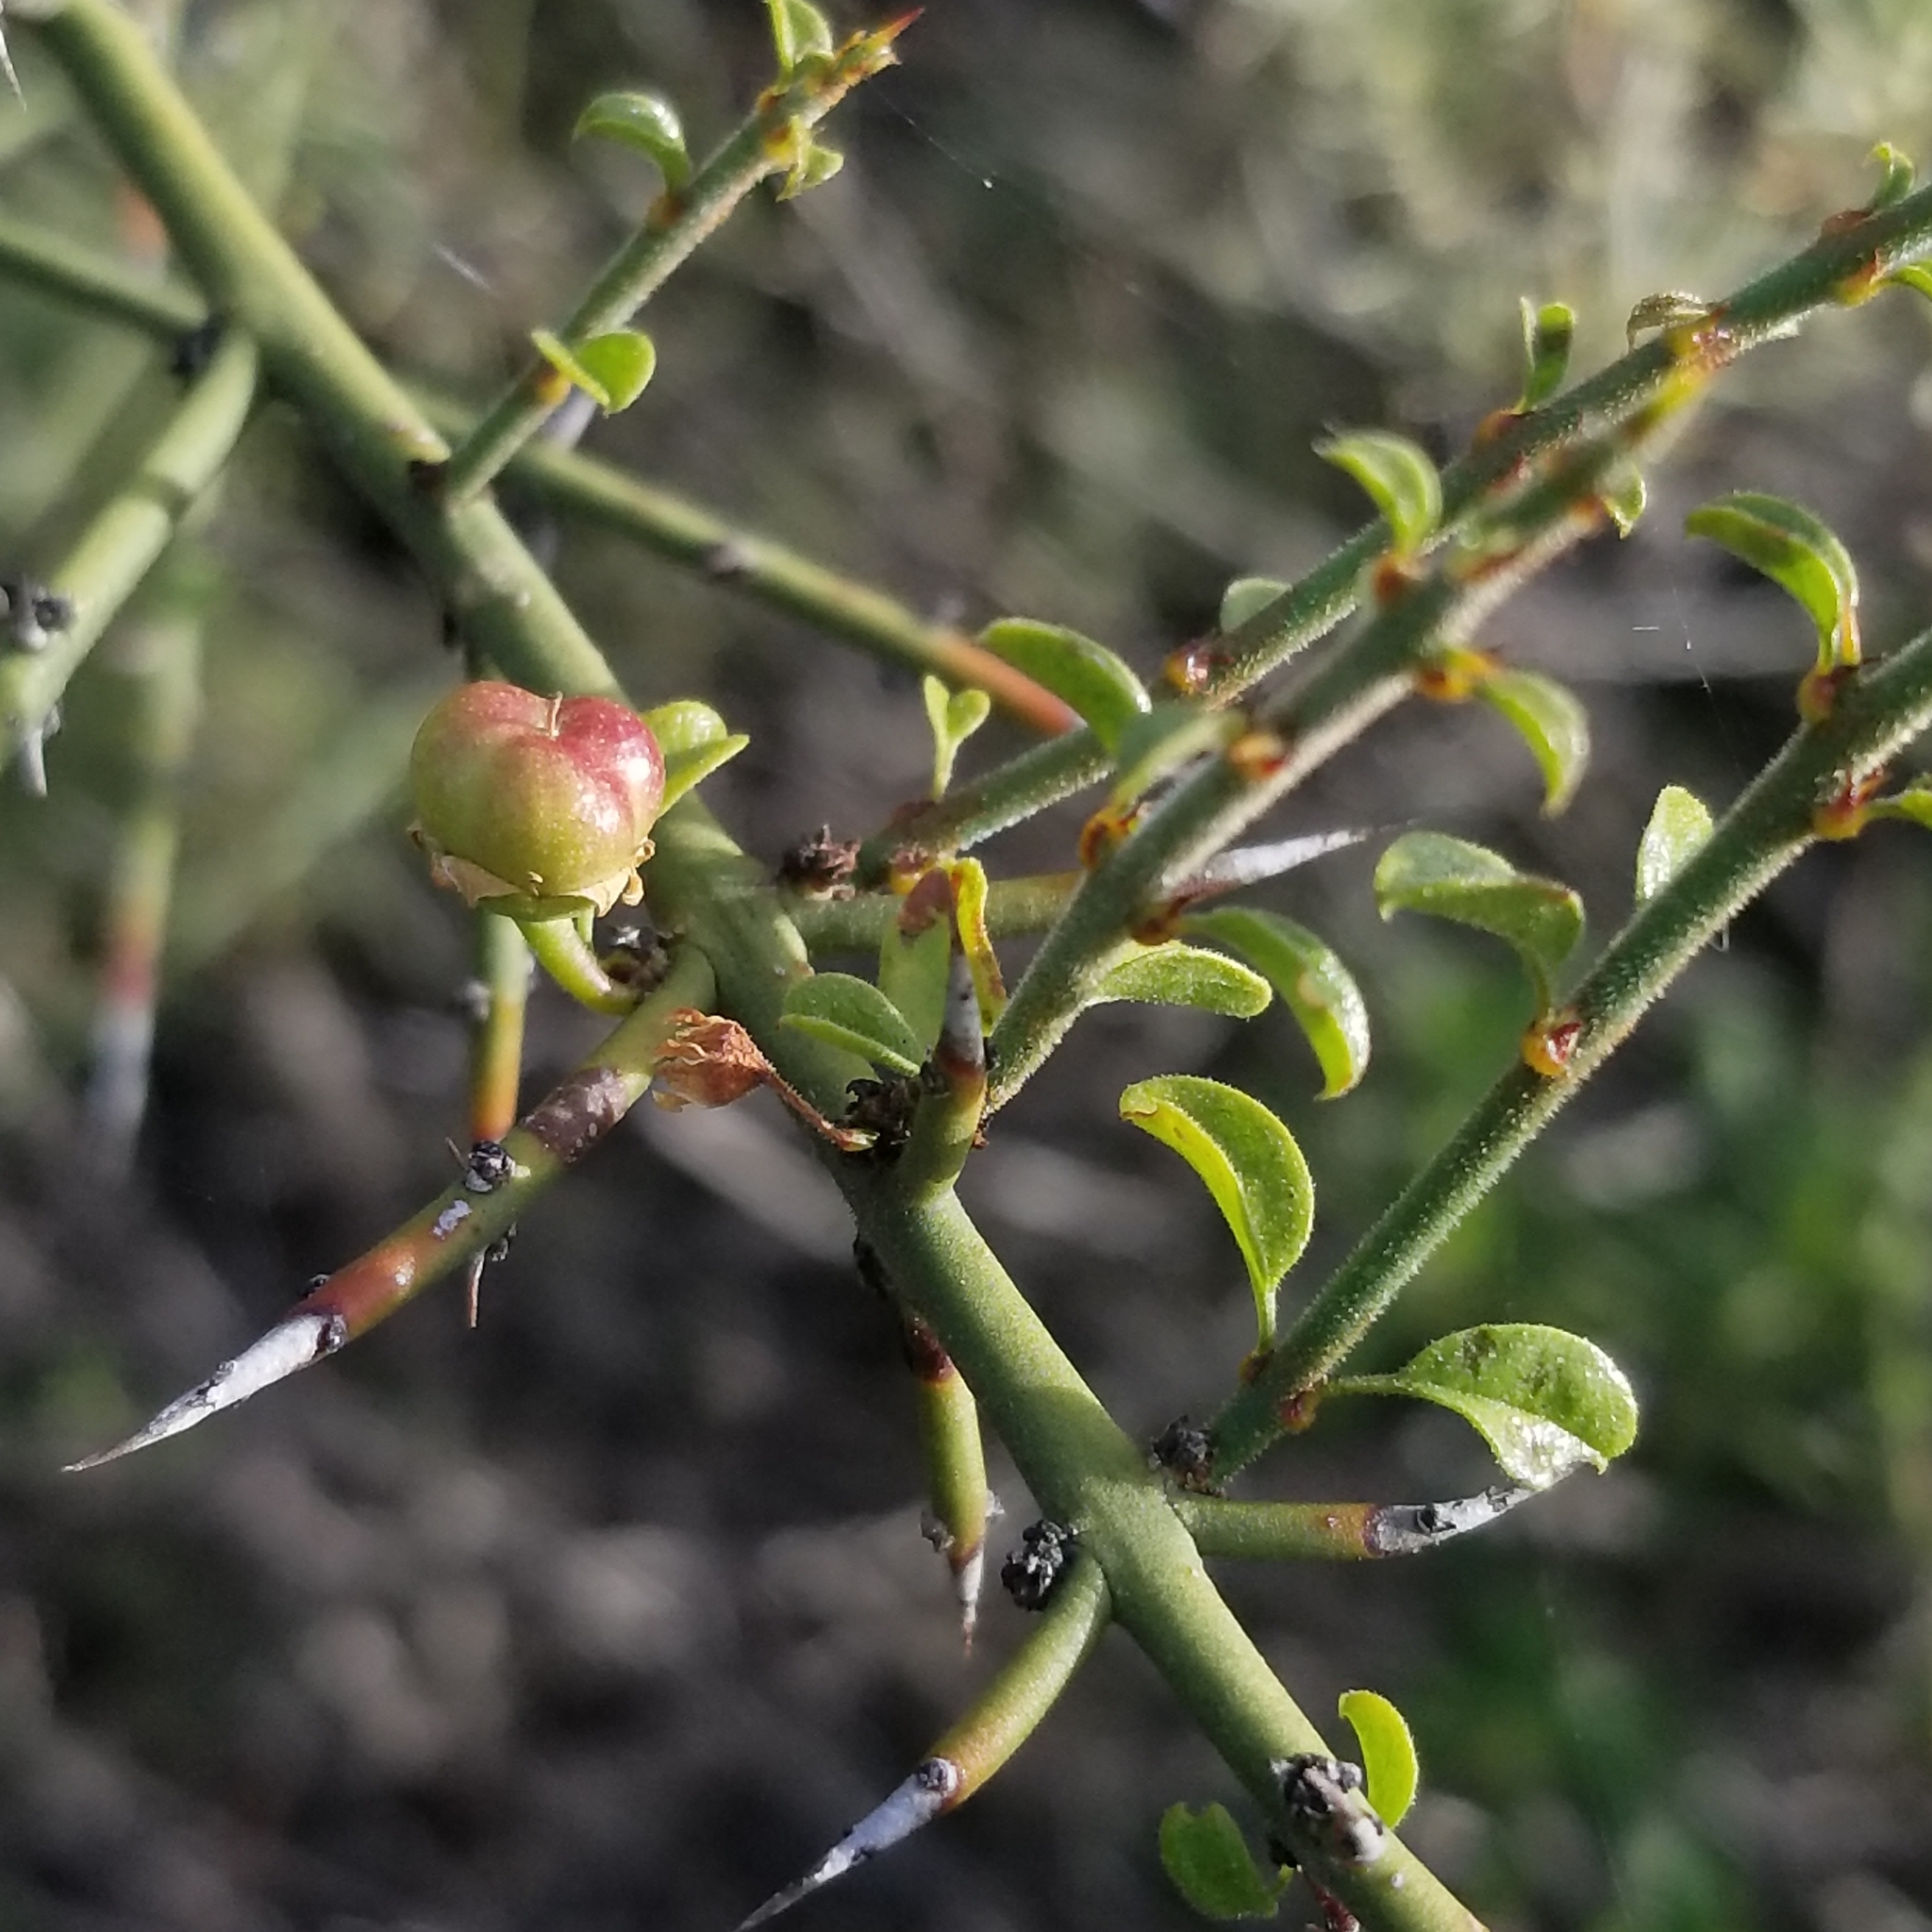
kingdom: Plantae
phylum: Tracheophyta
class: Magnoliopsida
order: Rosales
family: Rhamnaceae
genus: Adolphia
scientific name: Adolphia californica
